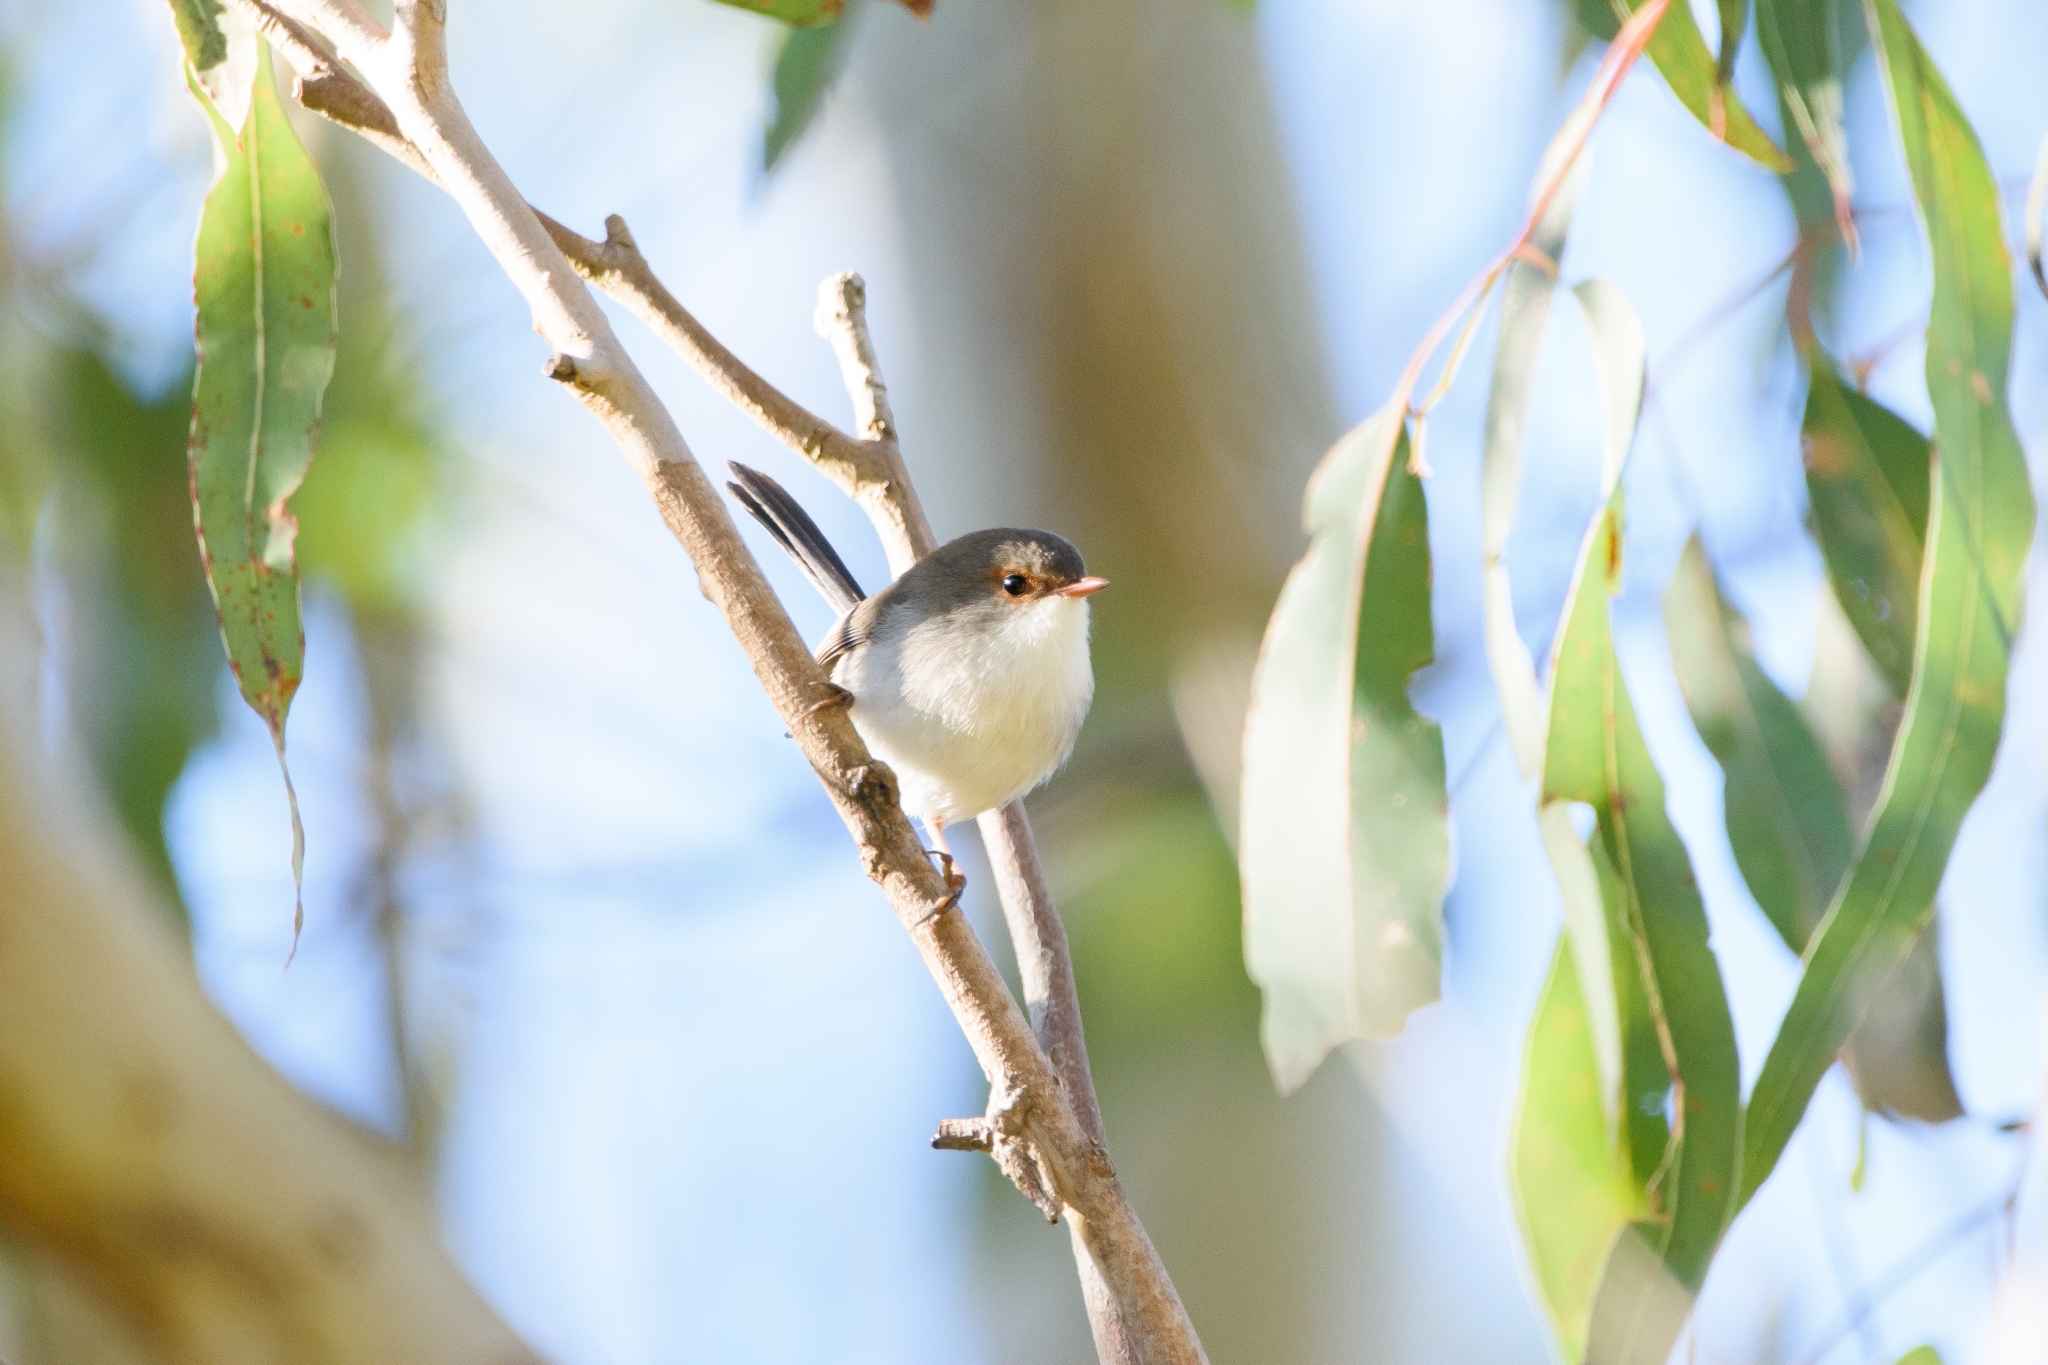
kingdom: Animalia
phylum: Chordata
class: Aves
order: Passeriformes
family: Maluridae
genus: Malurus
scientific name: Malurus cyaneus
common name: Superb fairywren
